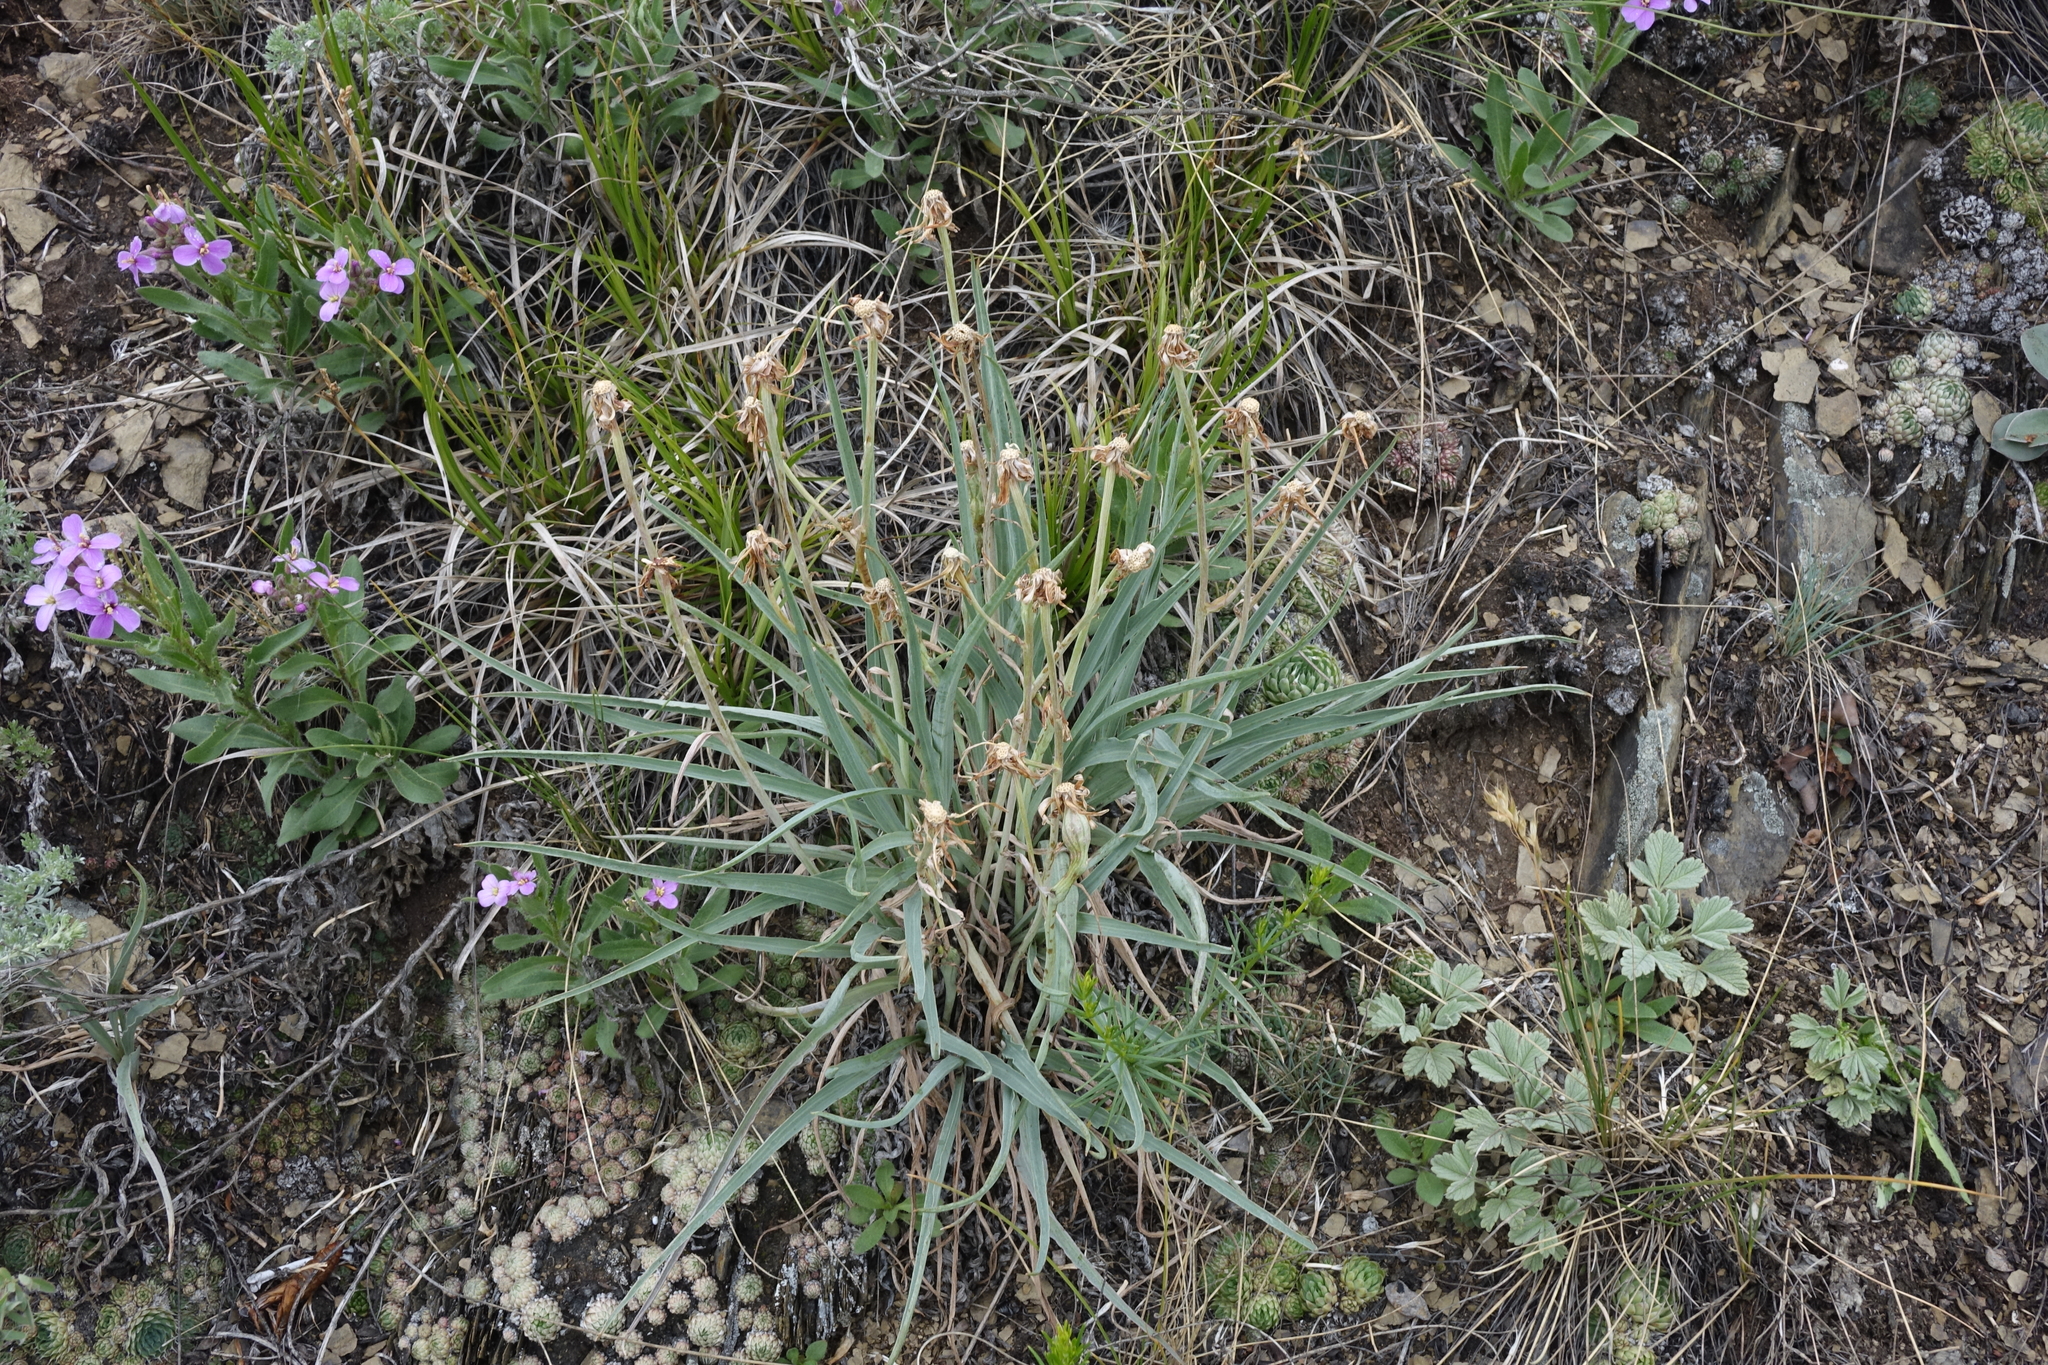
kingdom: Plantae
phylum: Tracheophyta
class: Magnoliopsida
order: Asterales
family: Asteraceae
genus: Takhtajaniantha
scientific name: Takhtajaniantha austriaca
